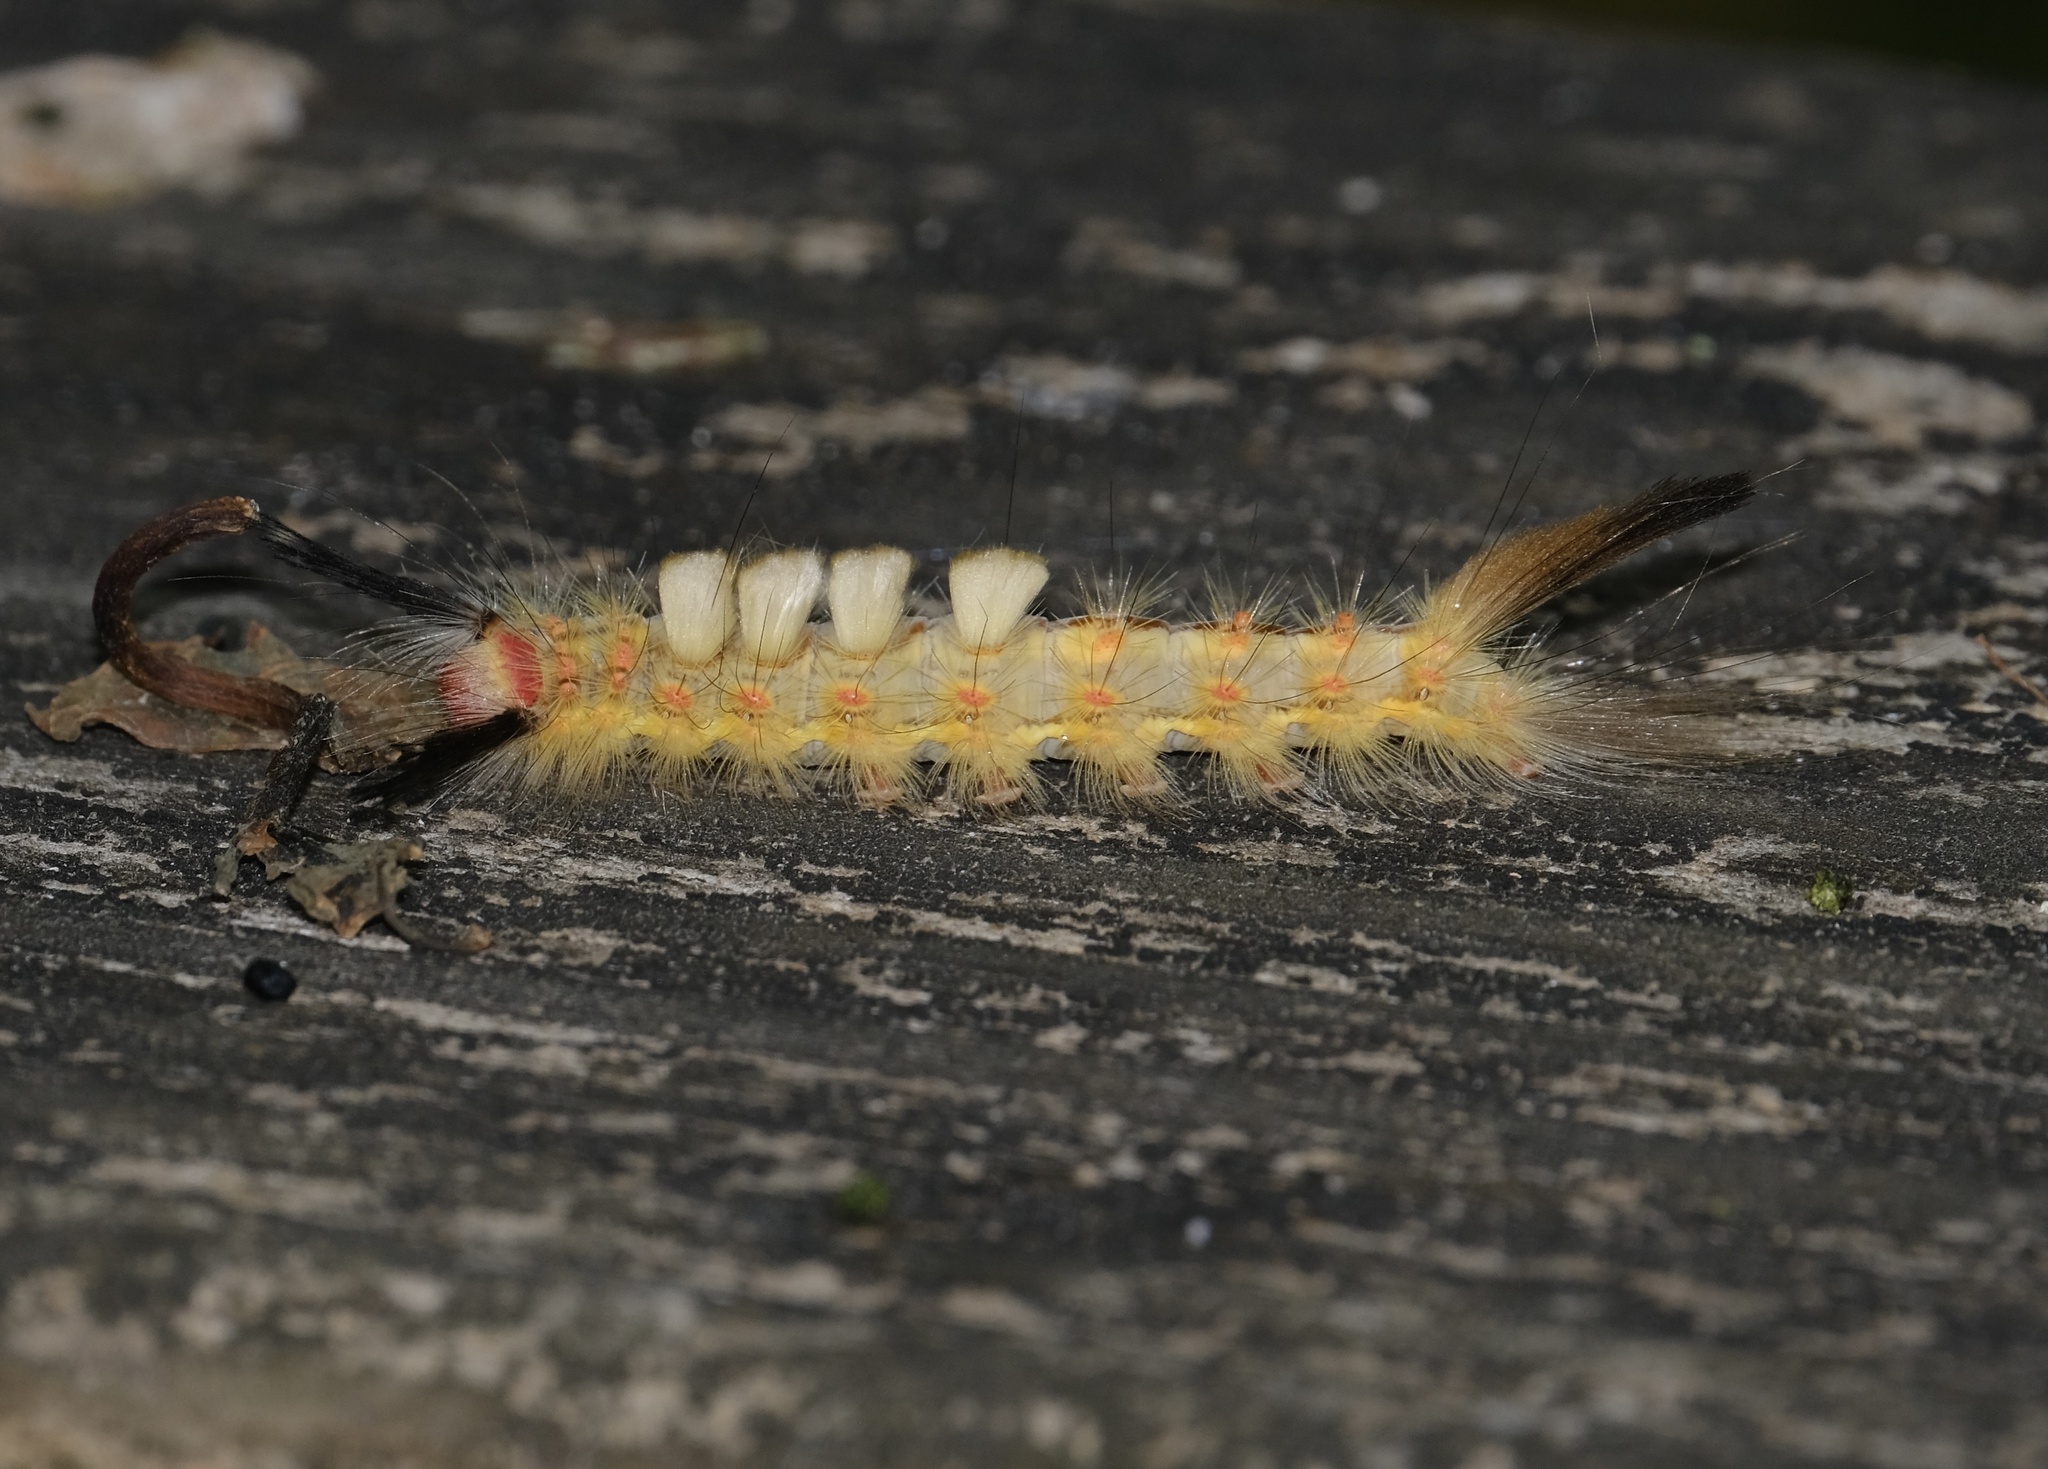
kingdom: Animalia
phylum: Arthropoda
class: Insecta
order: Lepidoptera
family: Erebidae
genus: Orgyia
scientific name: Orgyia detrita
